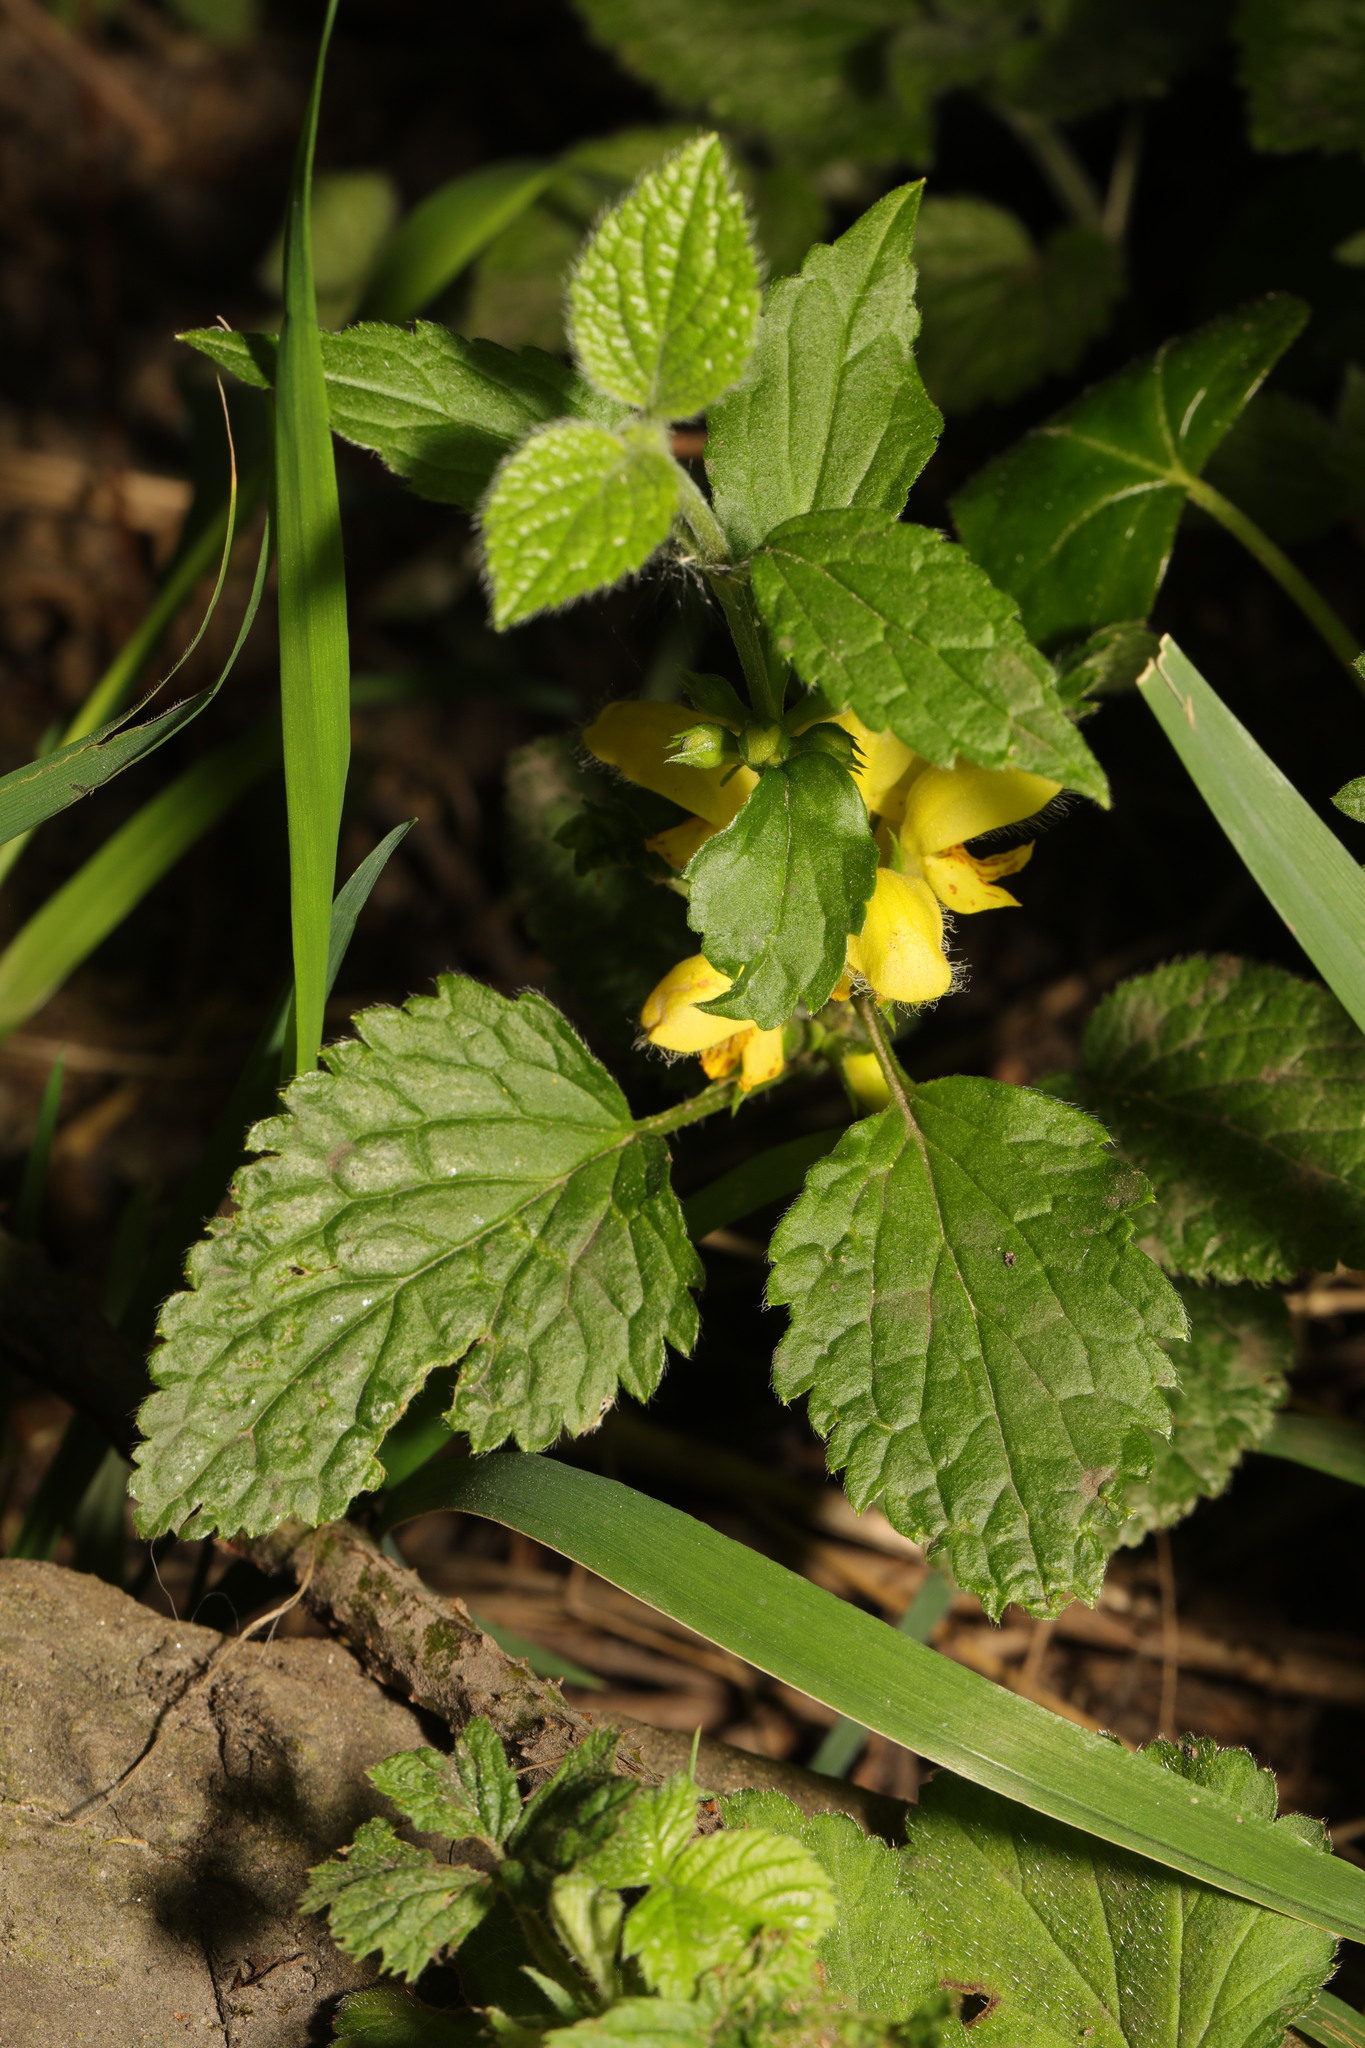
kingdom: Plantae
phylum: Tracheophyta
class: Magnoliopsida
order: Lamiales
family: Lamiaceae
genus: Lamium
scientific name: Lamium galeobdolon
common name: Yellow archangel
